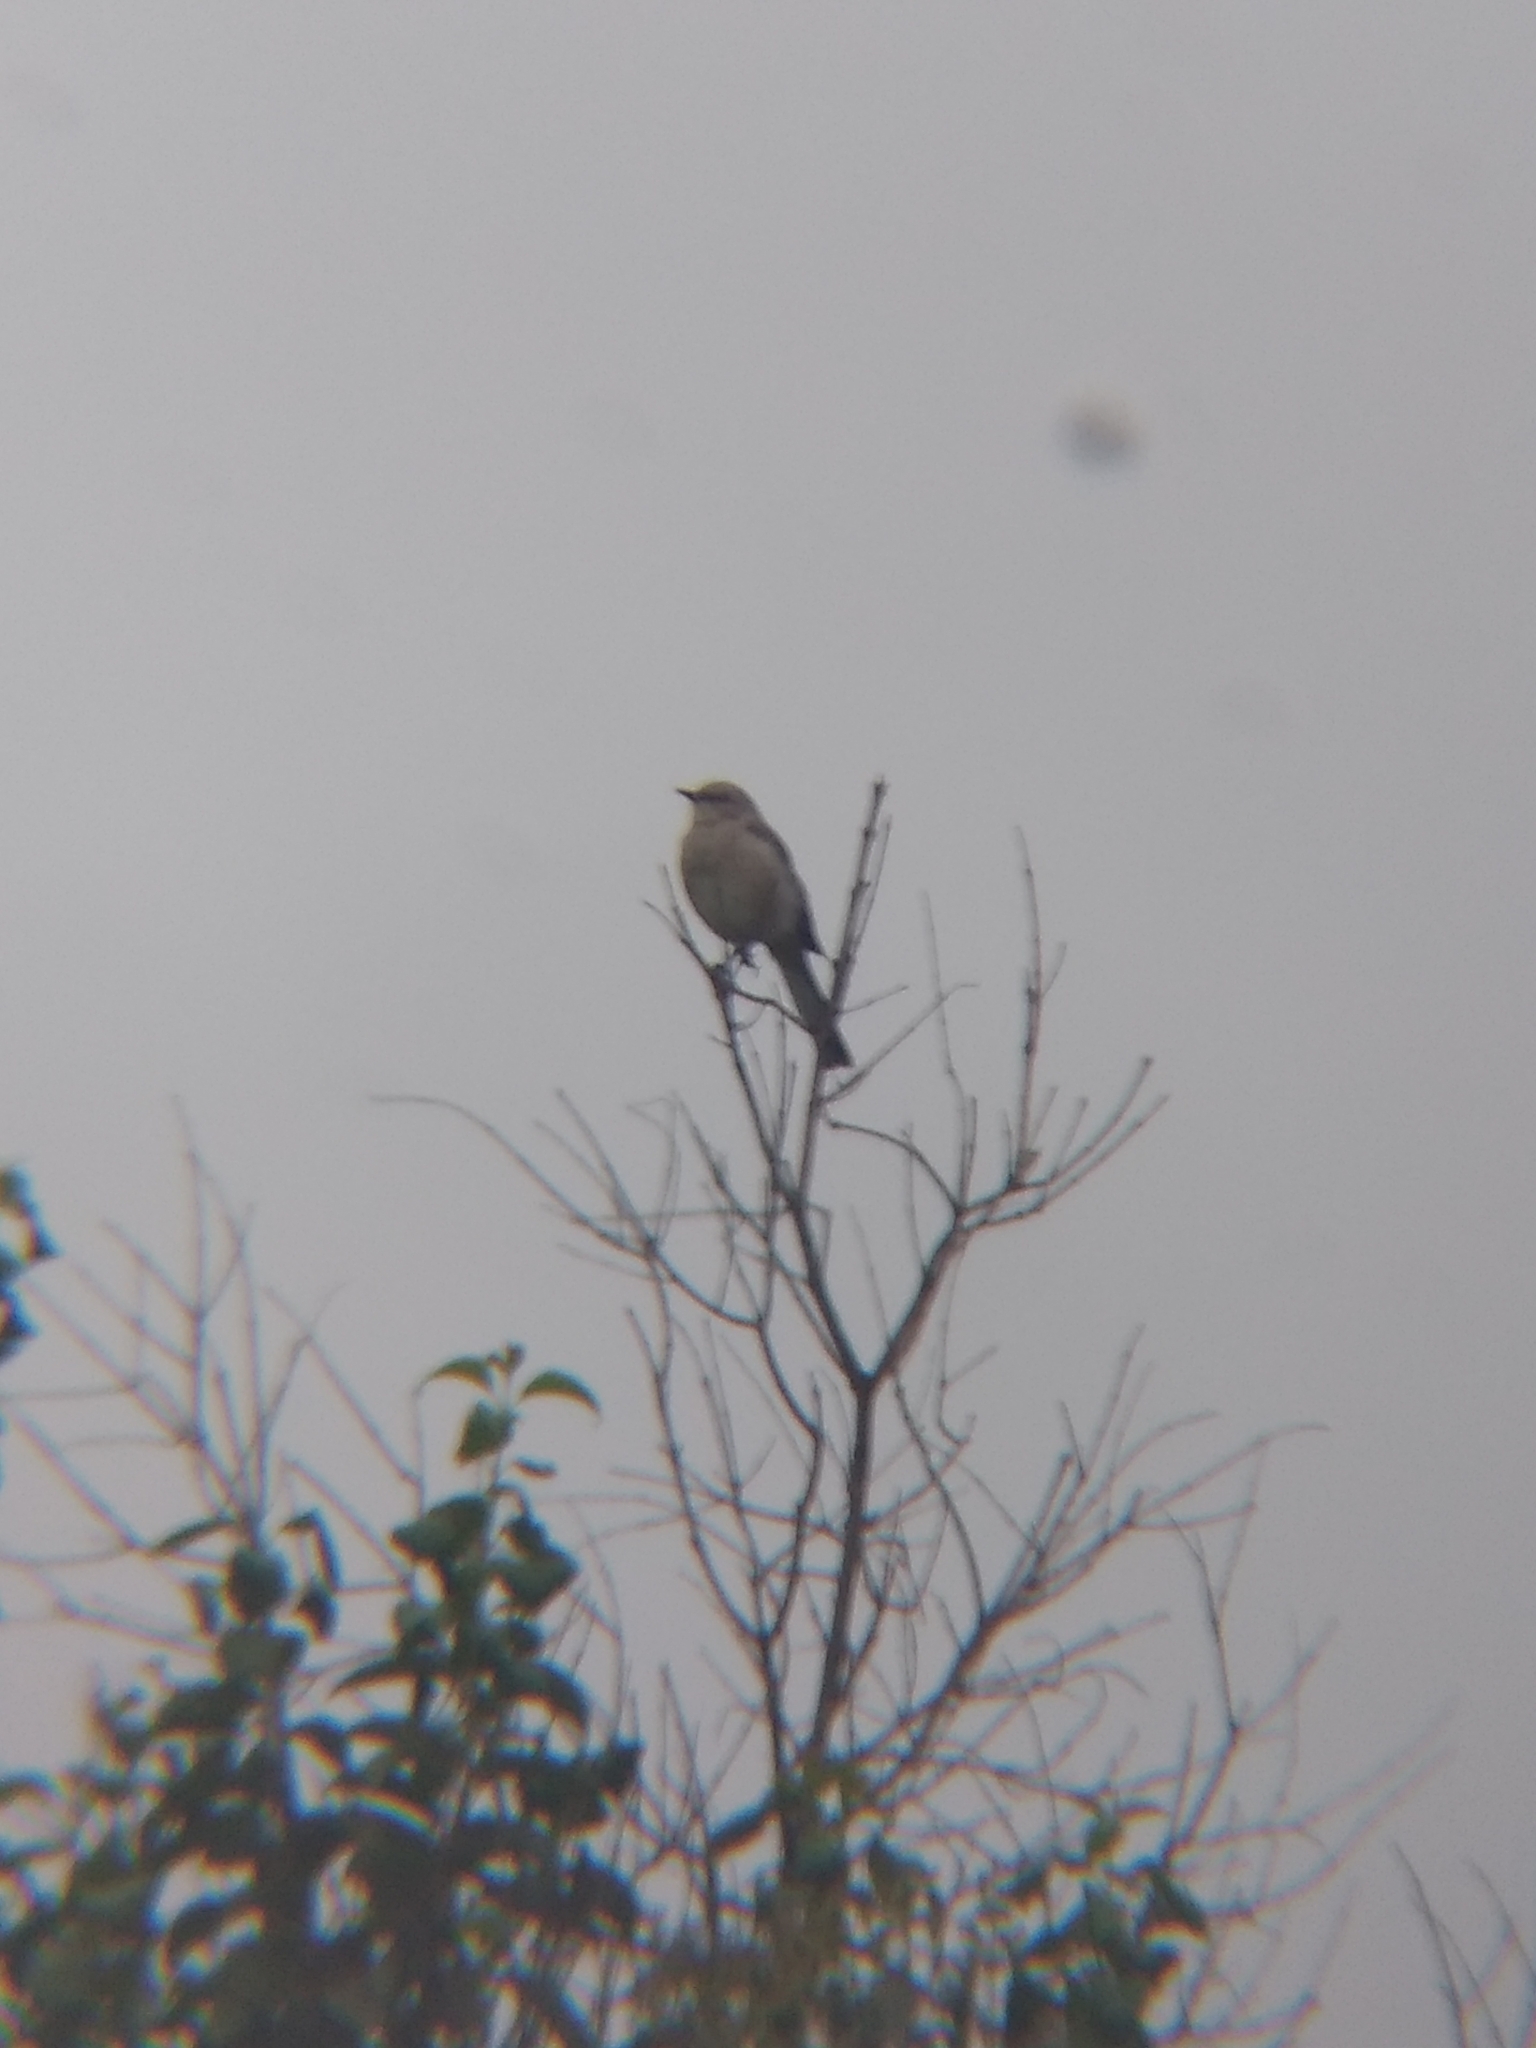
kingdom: Animalia
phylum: Chordata
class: Aves
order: Passeriformes
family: Mimidae
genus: Mimus
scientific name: Mimus polyglottos
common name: Northern mockingbird
